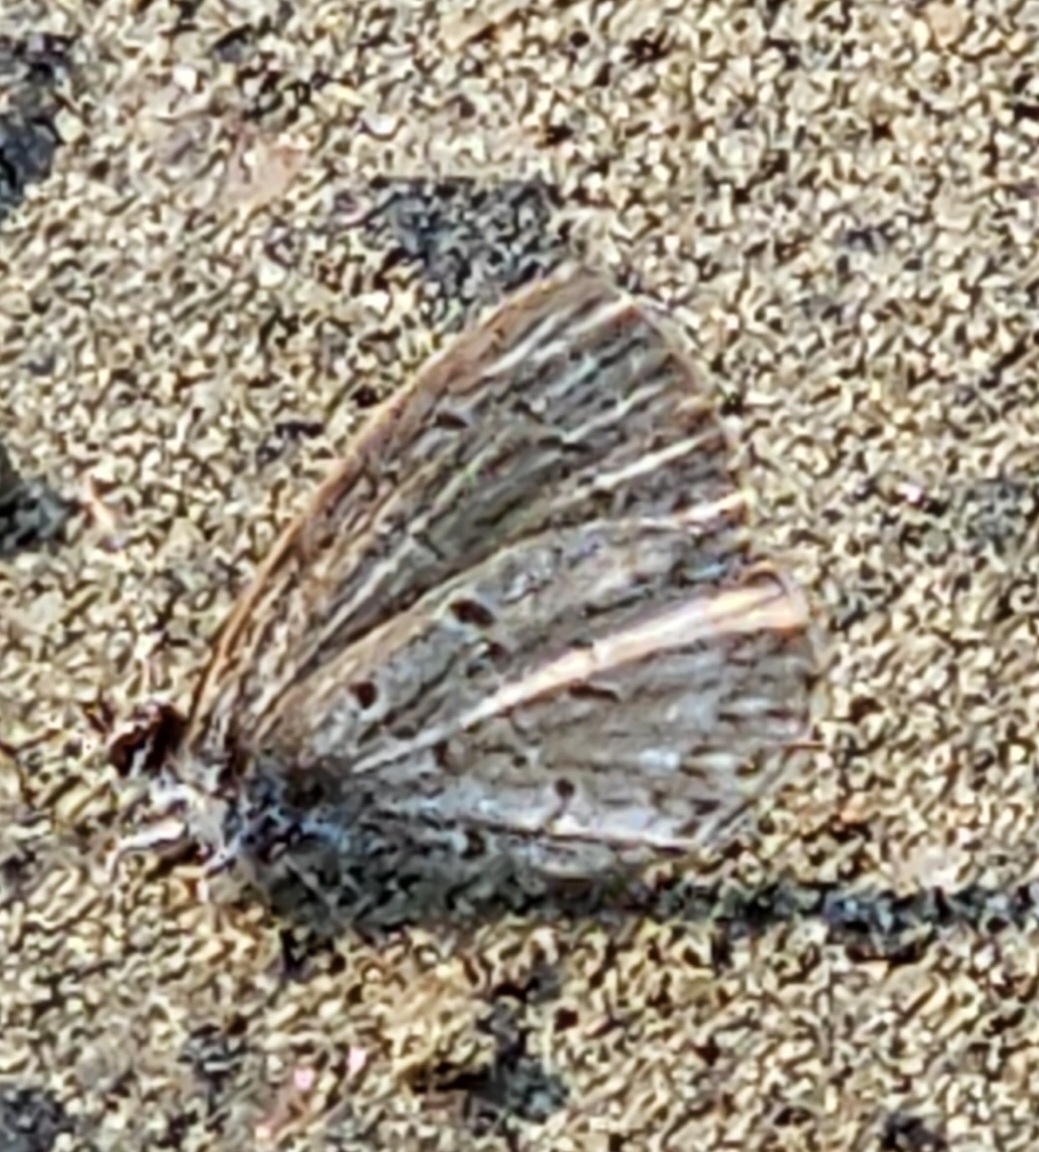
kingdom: Animalia
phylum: Arthropoda
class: Insecta
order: Lepidoptera
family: Lycaenidae
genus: Celastrina
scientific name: Celastrina lucia
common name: Lucia azure
